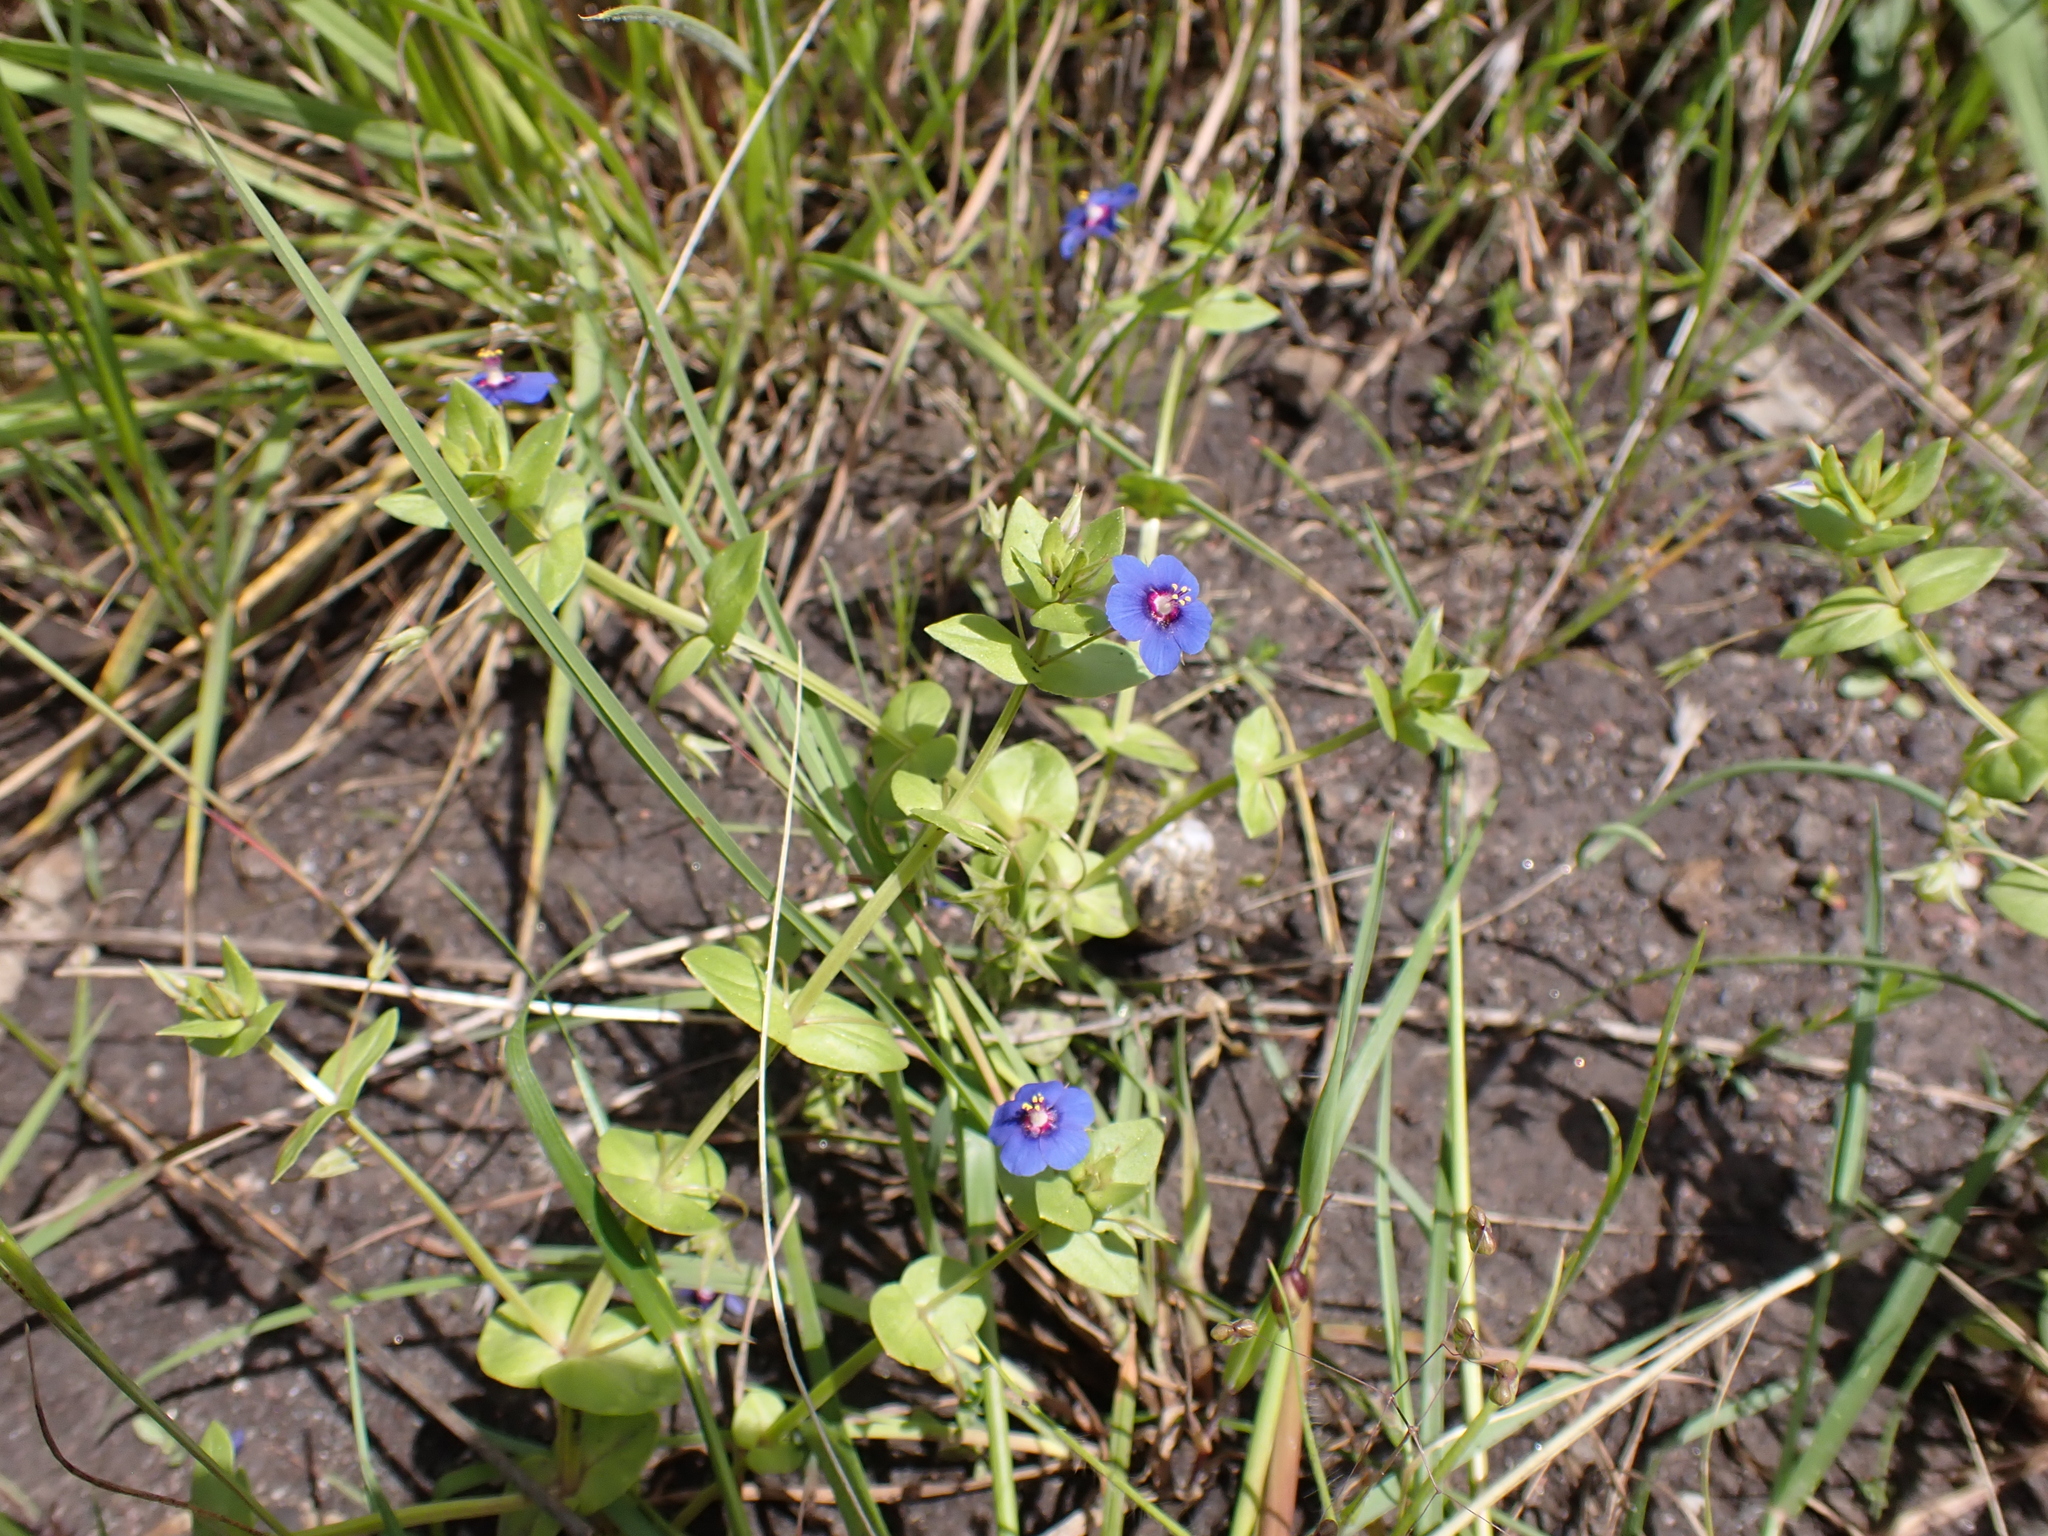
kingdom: Plantae
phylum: Tracheophyta
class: Magnoliopsida
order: Ericales
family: Primulaceae
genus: Lysimachia
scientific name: Lysimachia loeflingii
